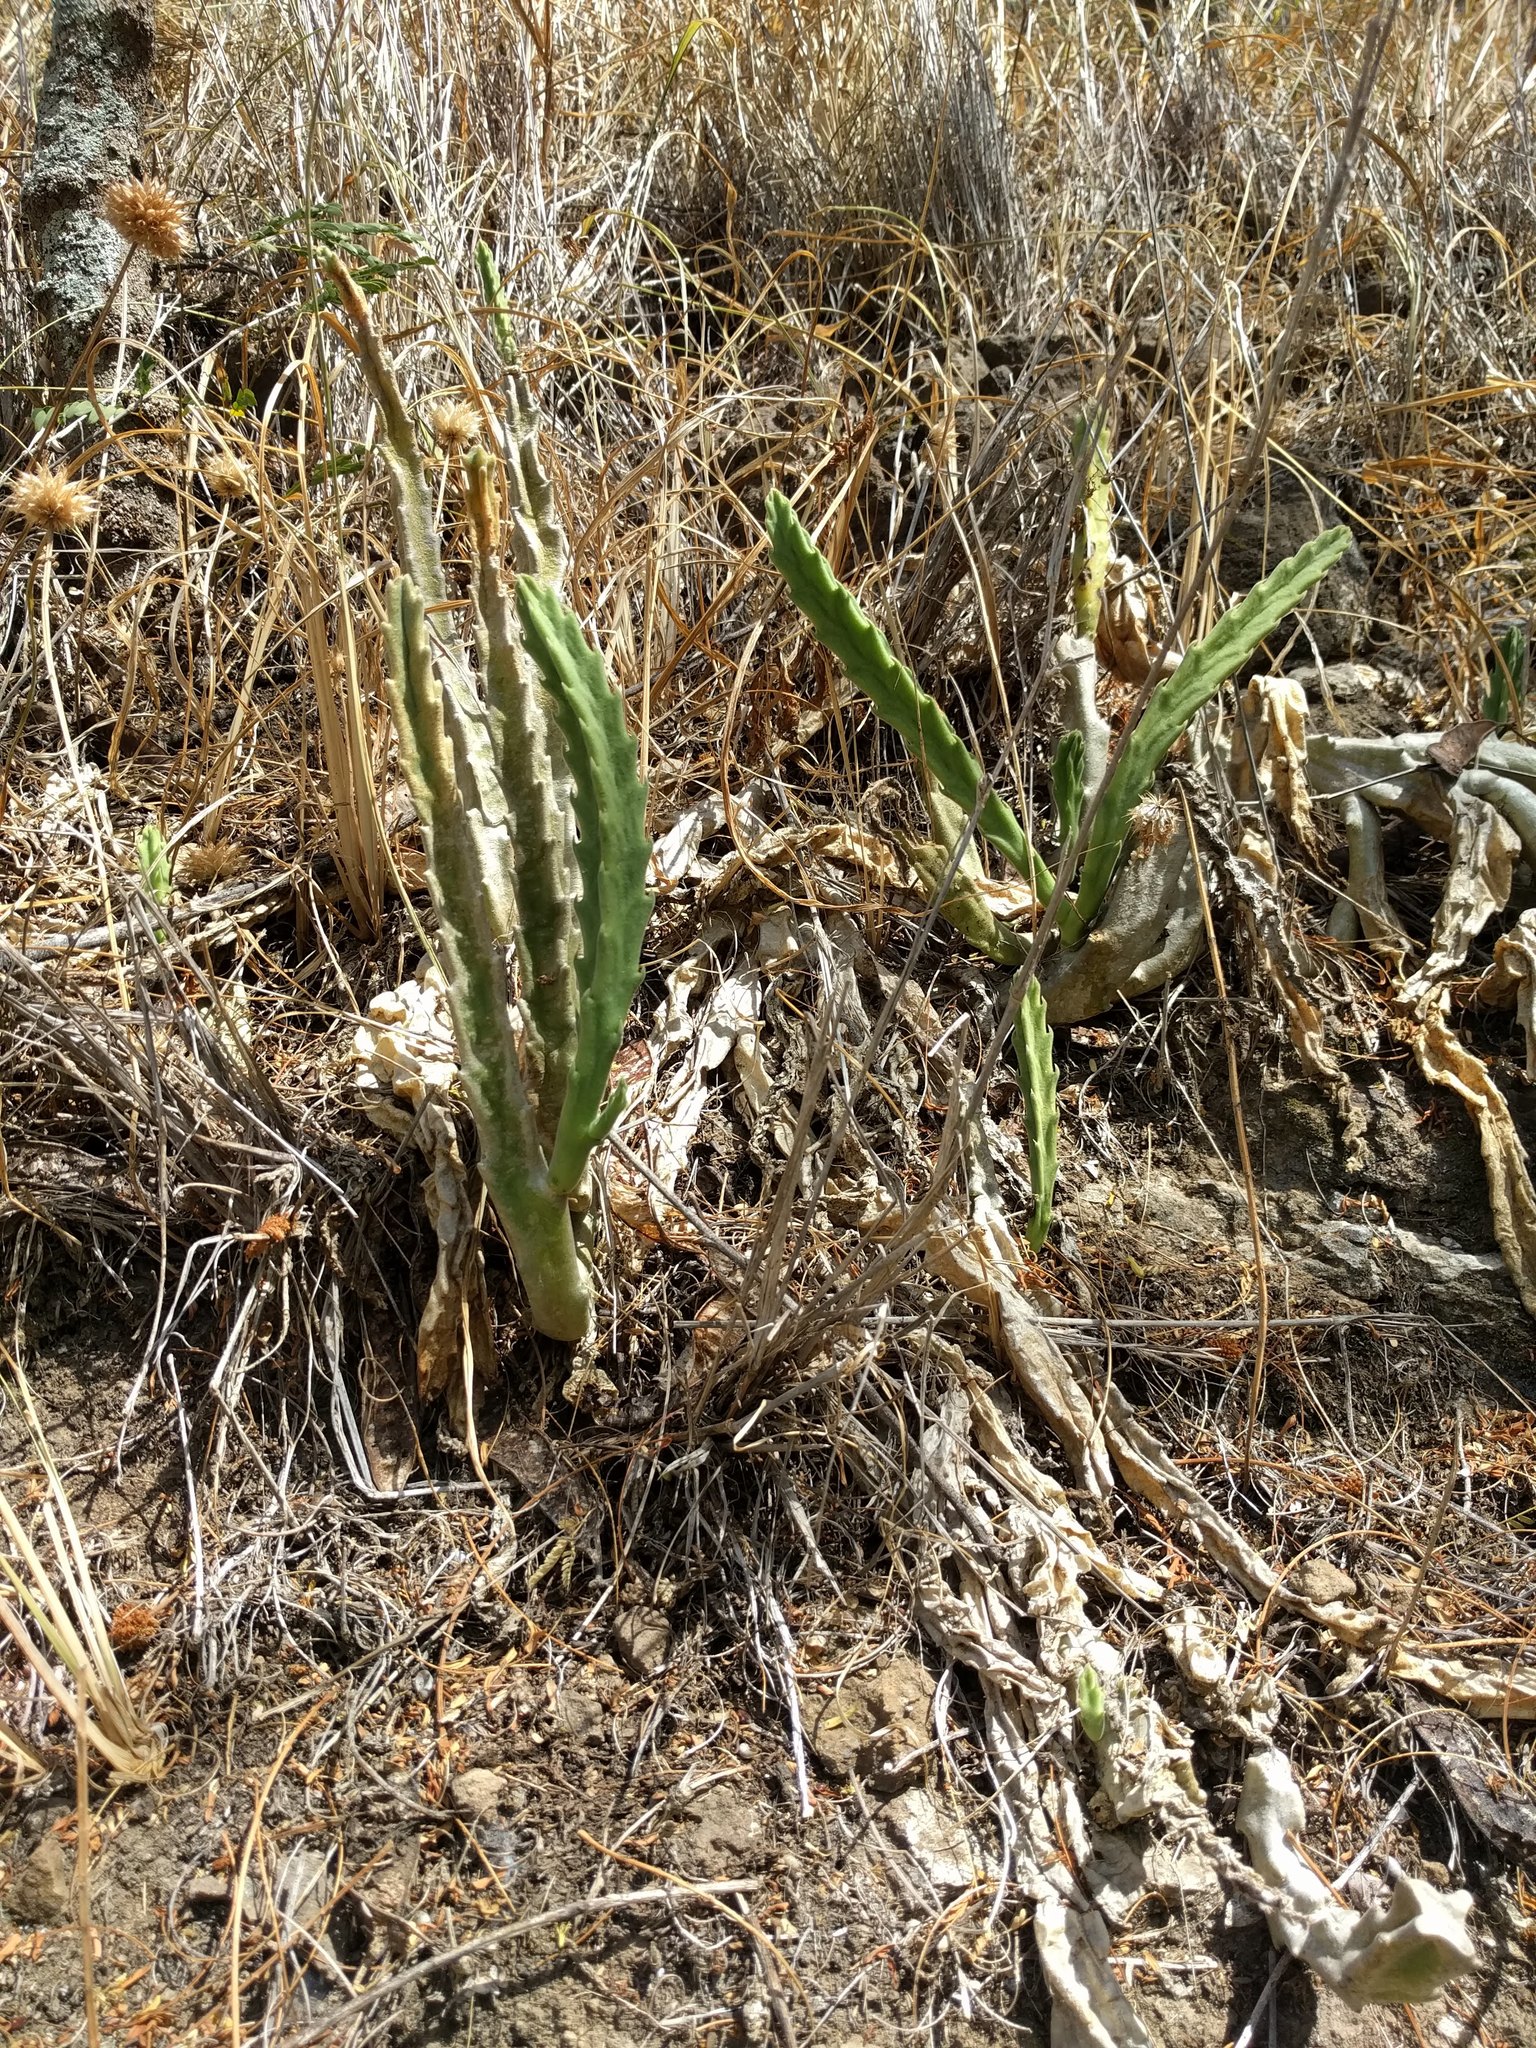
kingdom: Plantae
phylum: Tracheophyta
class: Magnoliopsida
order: Gentianales
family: Apocynaceae
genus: Ceropegia
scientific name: Ceropegia gigantea
